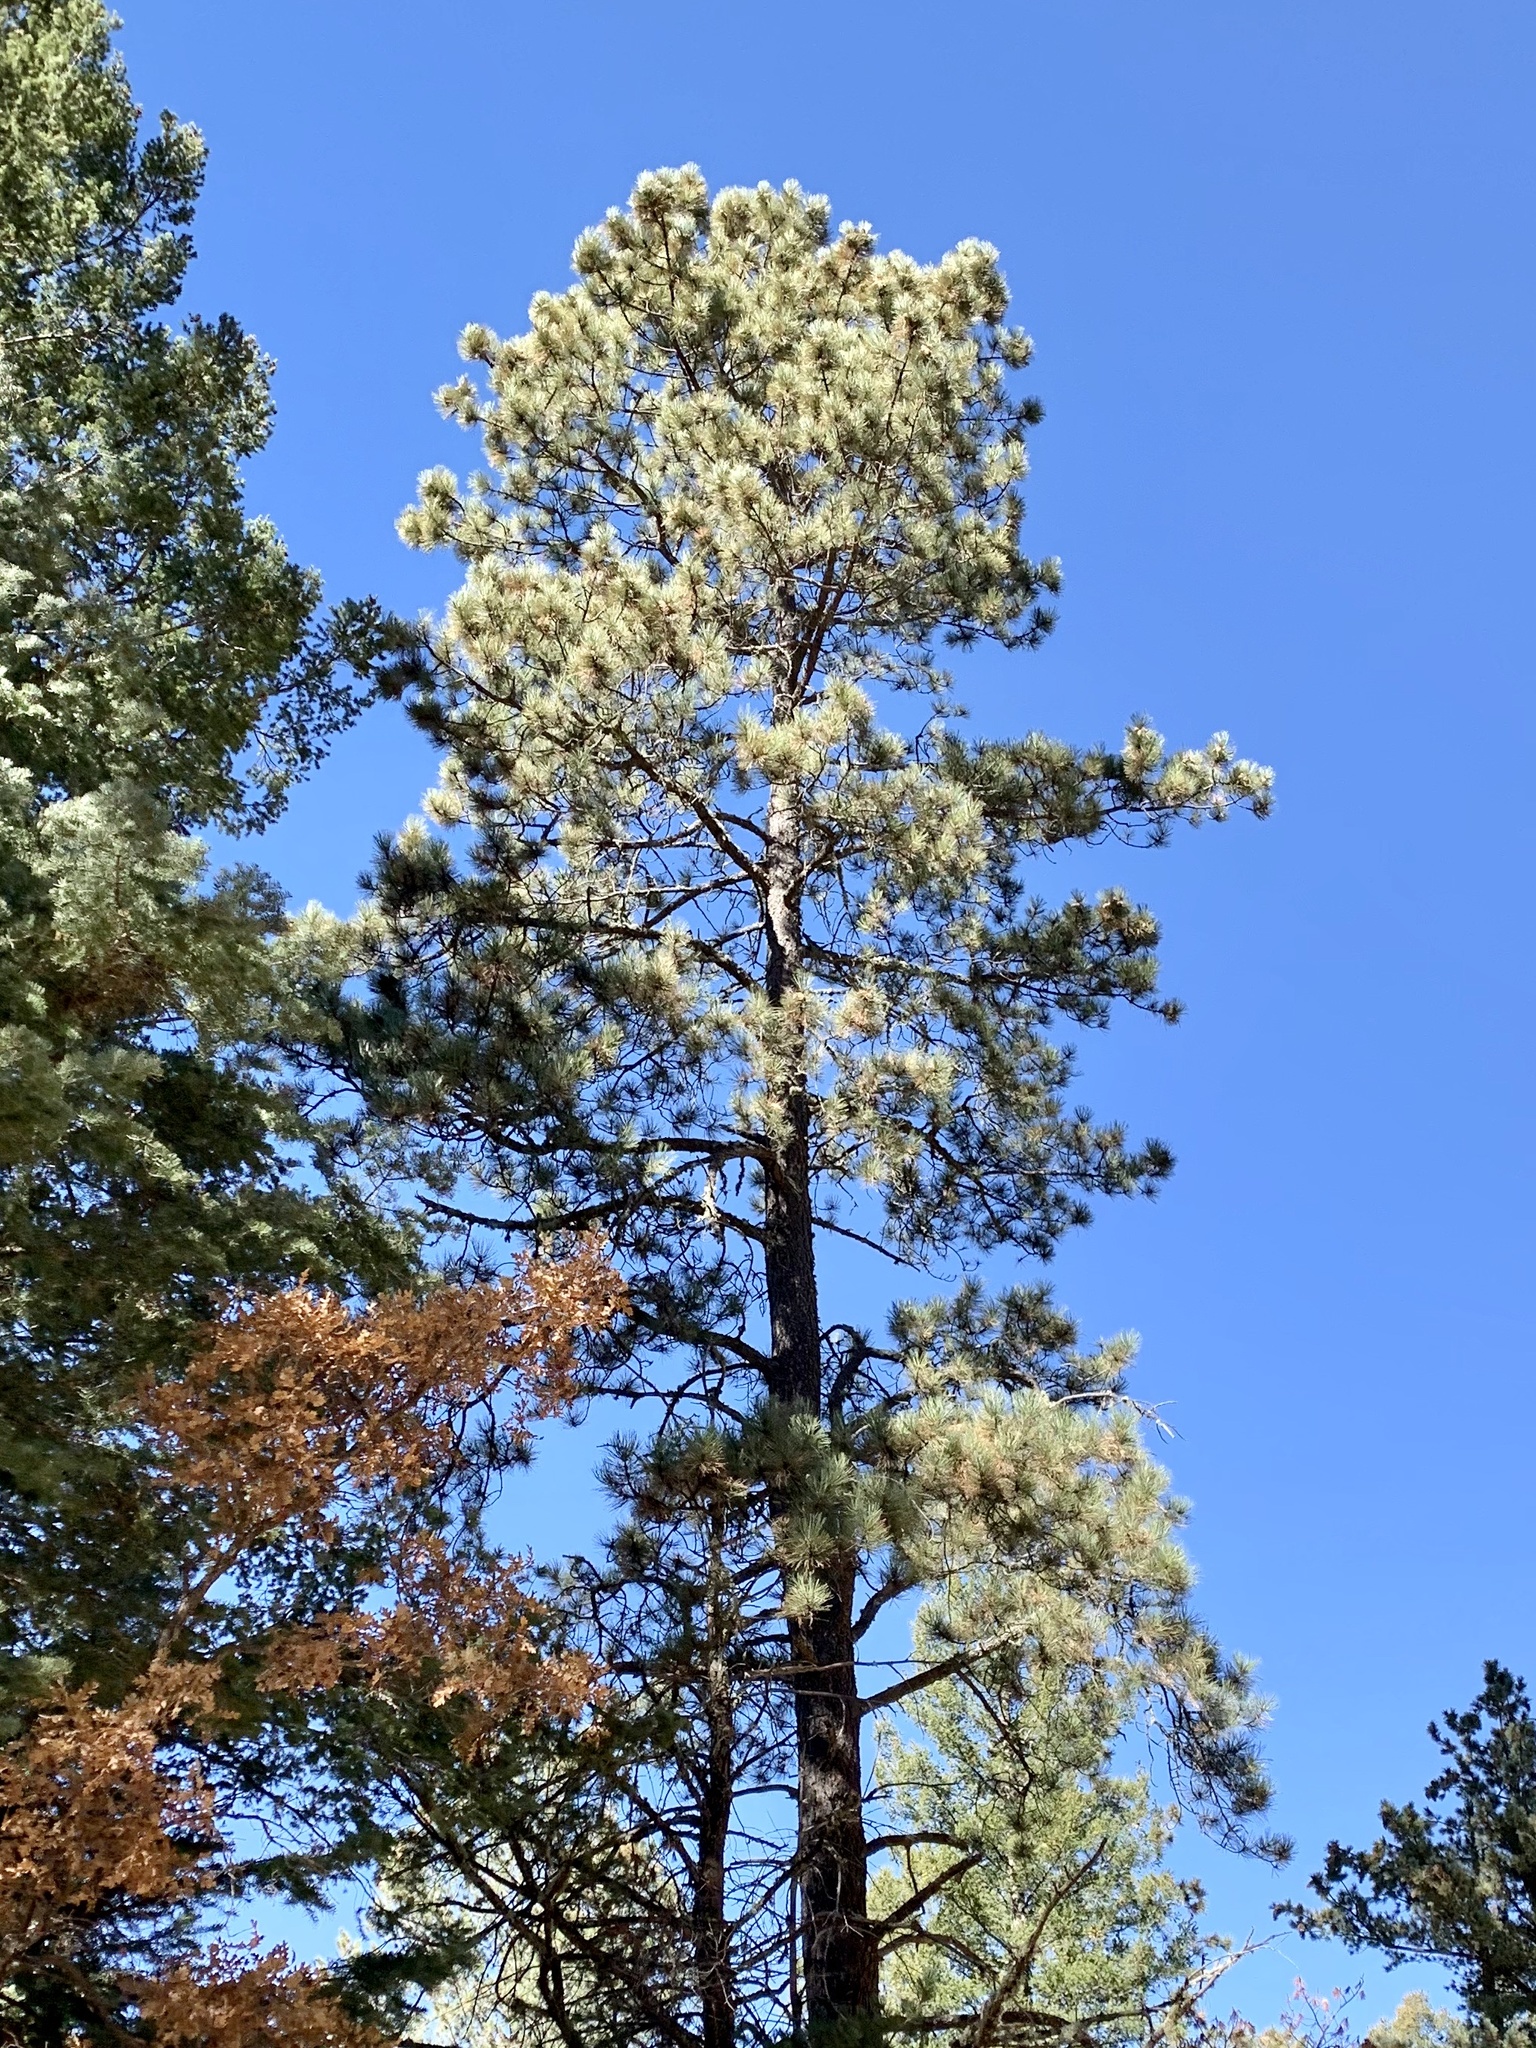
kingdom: Plantae
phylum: Tracheophyta
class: Pinopsida
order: Pinales
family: Pinaceae
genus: Pinus
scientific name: Pinus ponderosa
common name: Western yellow-pine
